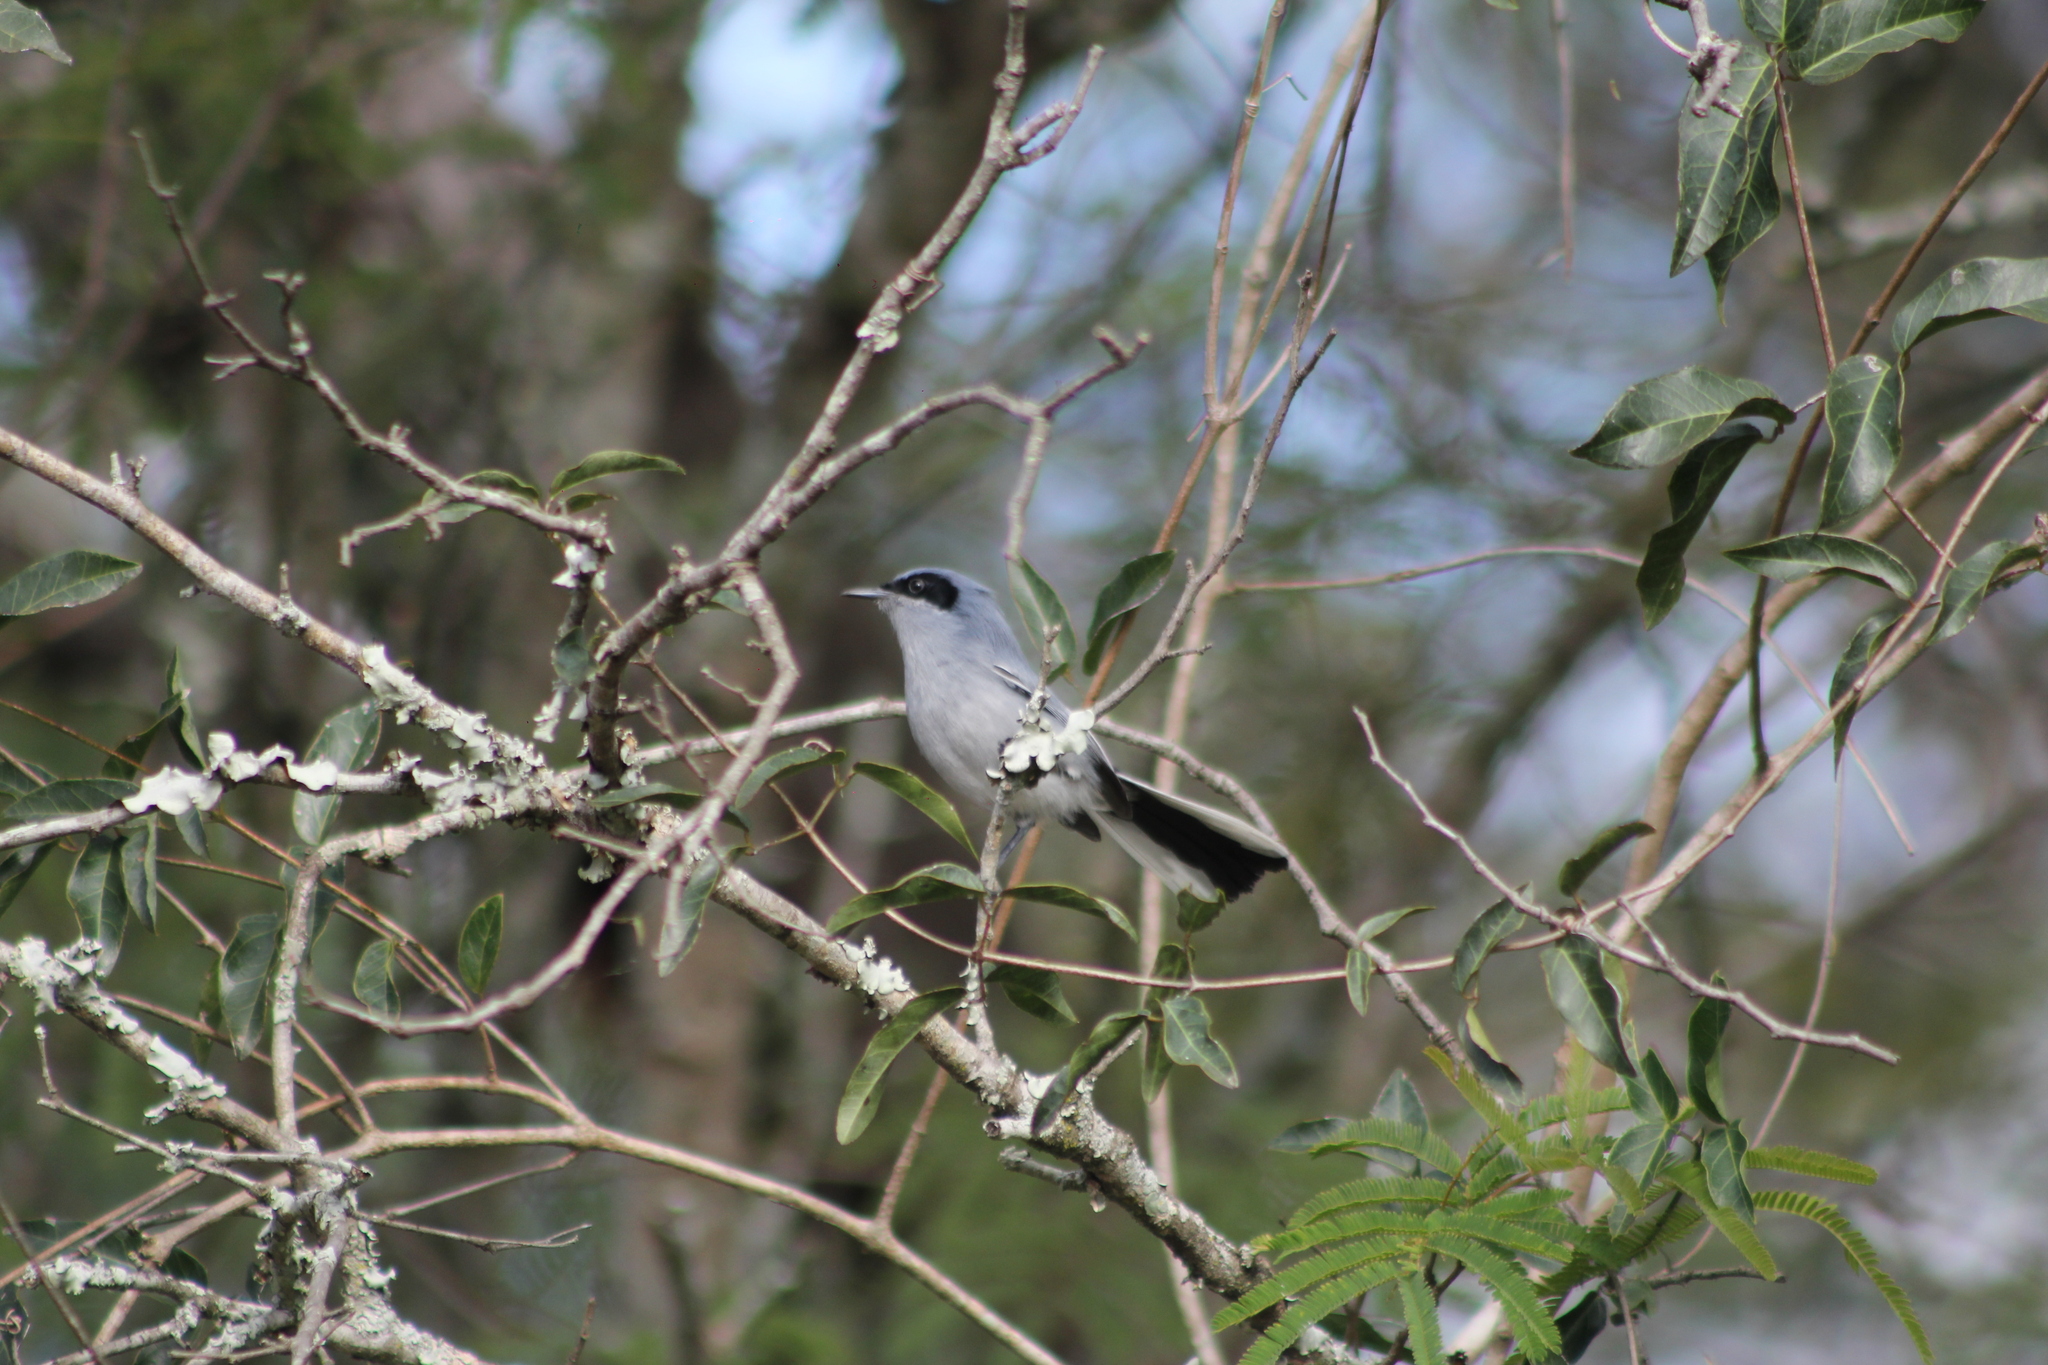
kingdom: Animalia
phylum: Chordata
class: Aves
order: Passeriformes
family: Polioptilidae
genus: Polioptila
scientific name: Polioptila dumicola
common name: Masked gnatcatcher
